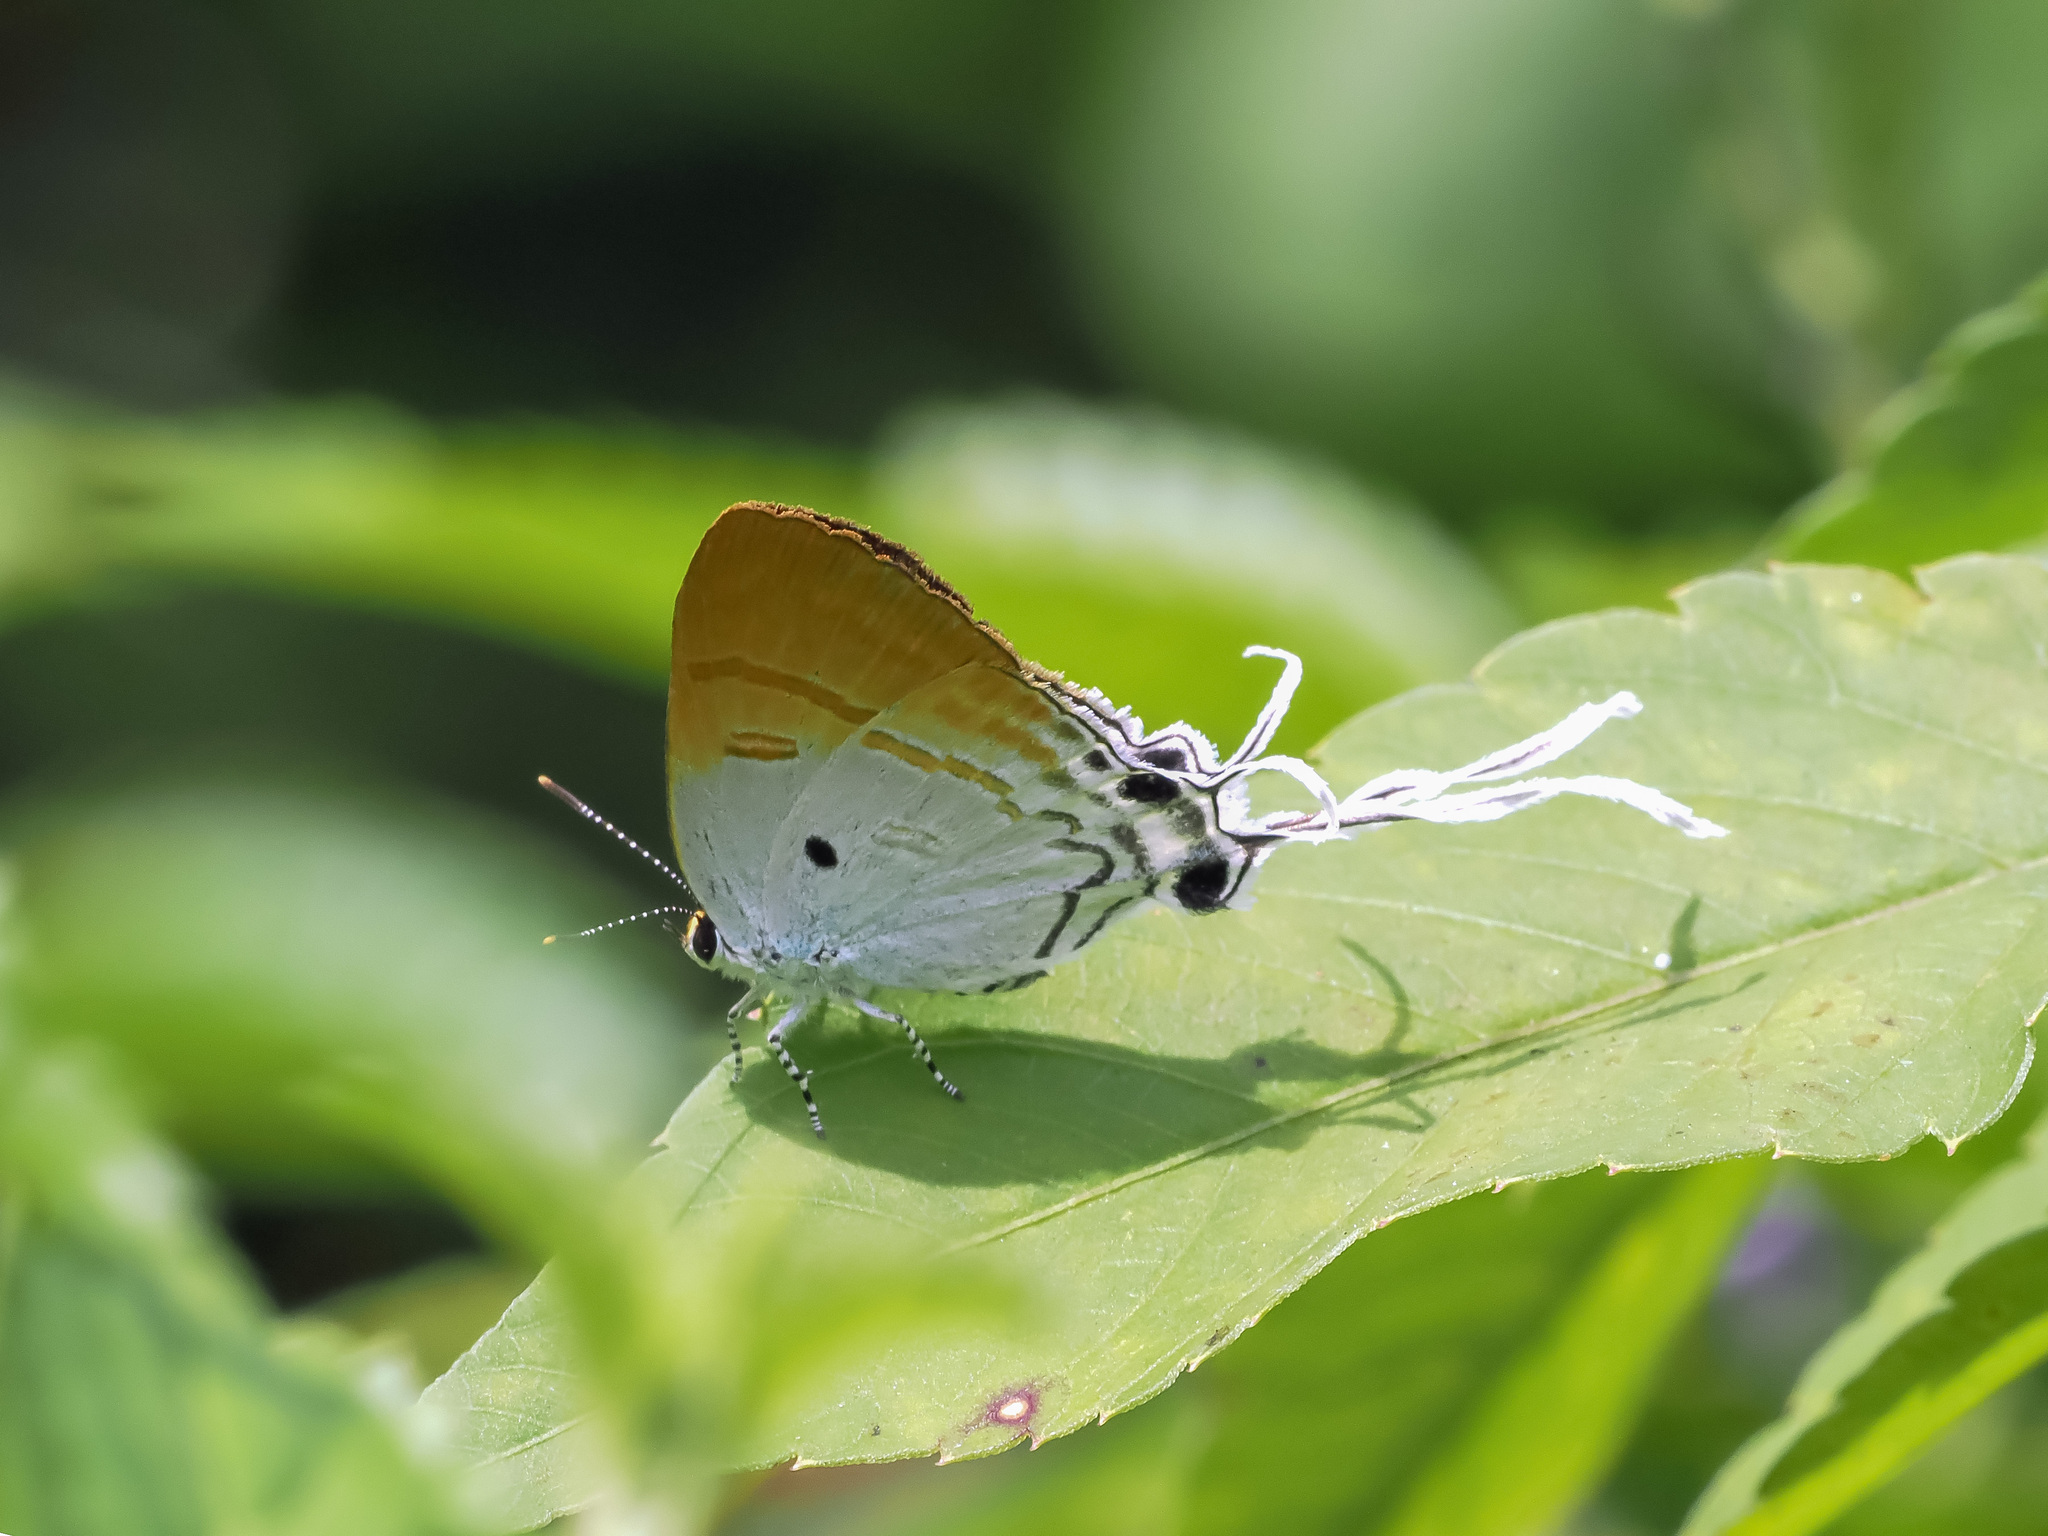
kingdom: Animalia
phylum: Arthropoda
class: Insecta
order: Lepidoptera
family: Lycaenidae
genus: Zeltus
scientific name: Zeltus amasa
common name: Fluffy tit
